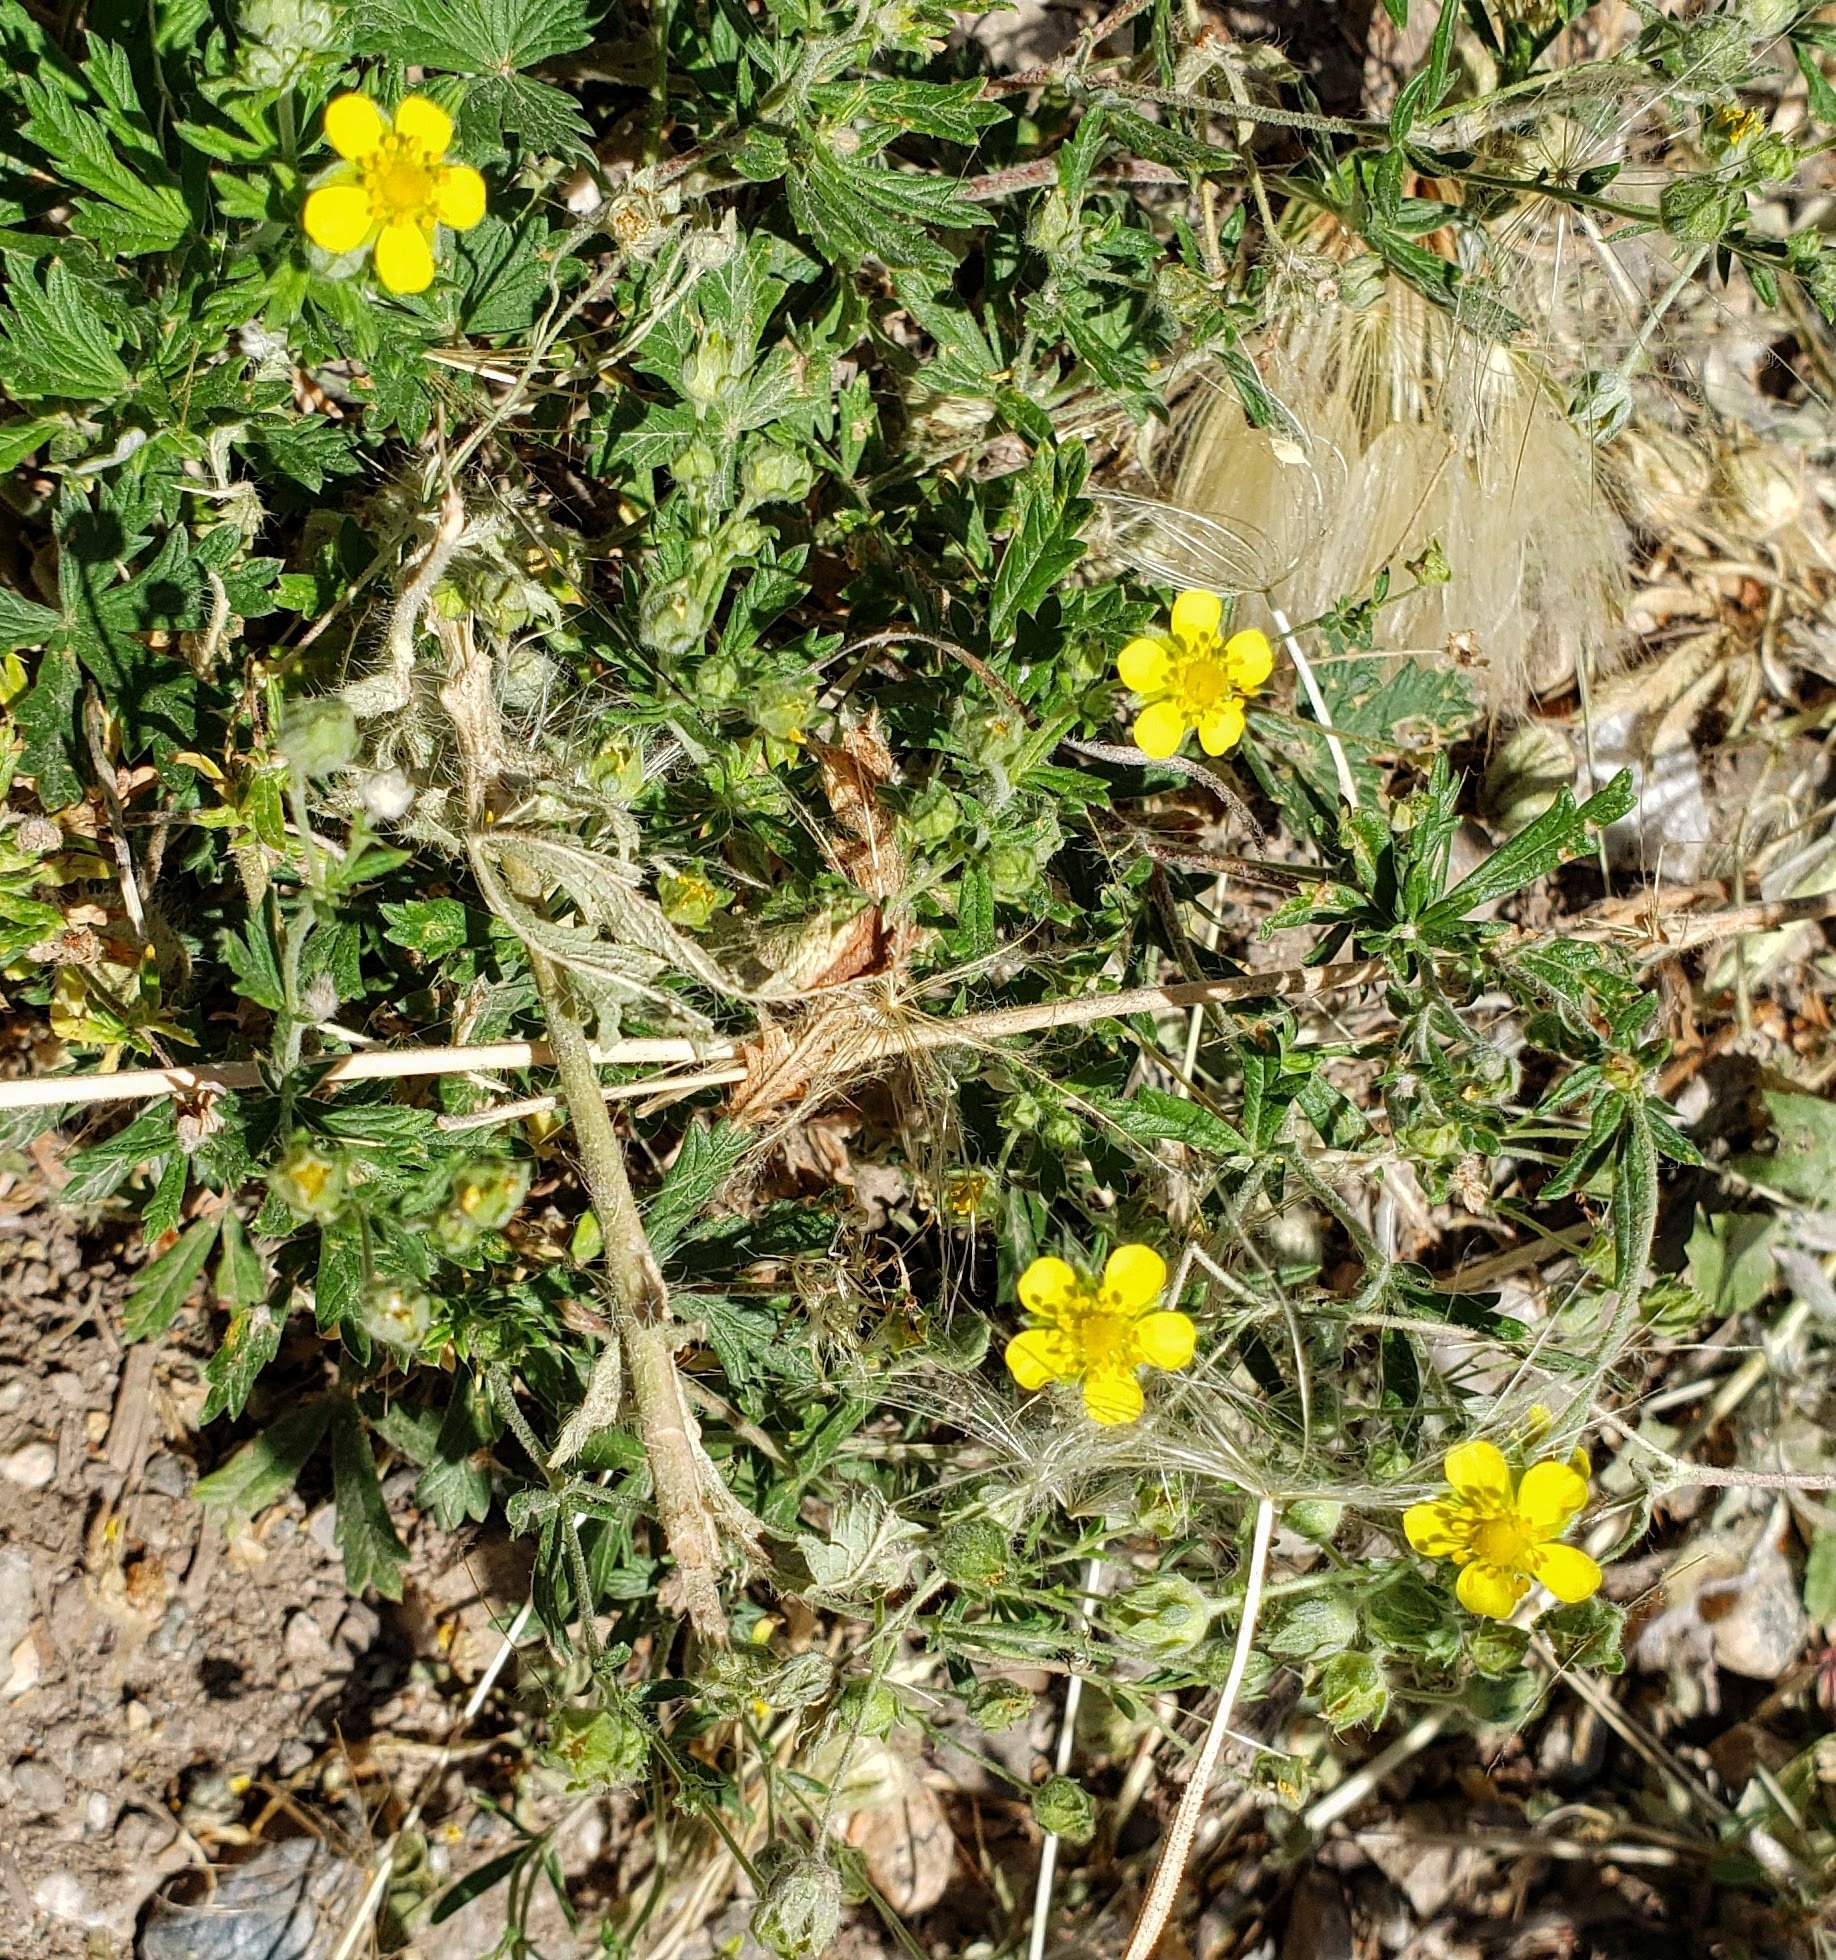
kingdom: Plantae
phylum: Tracheophyta
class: Magnoliopsida
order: Rosales
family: Rosaceae
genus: Potentilla
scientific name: Potentilla argentea
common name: Hoary cinquefoil
